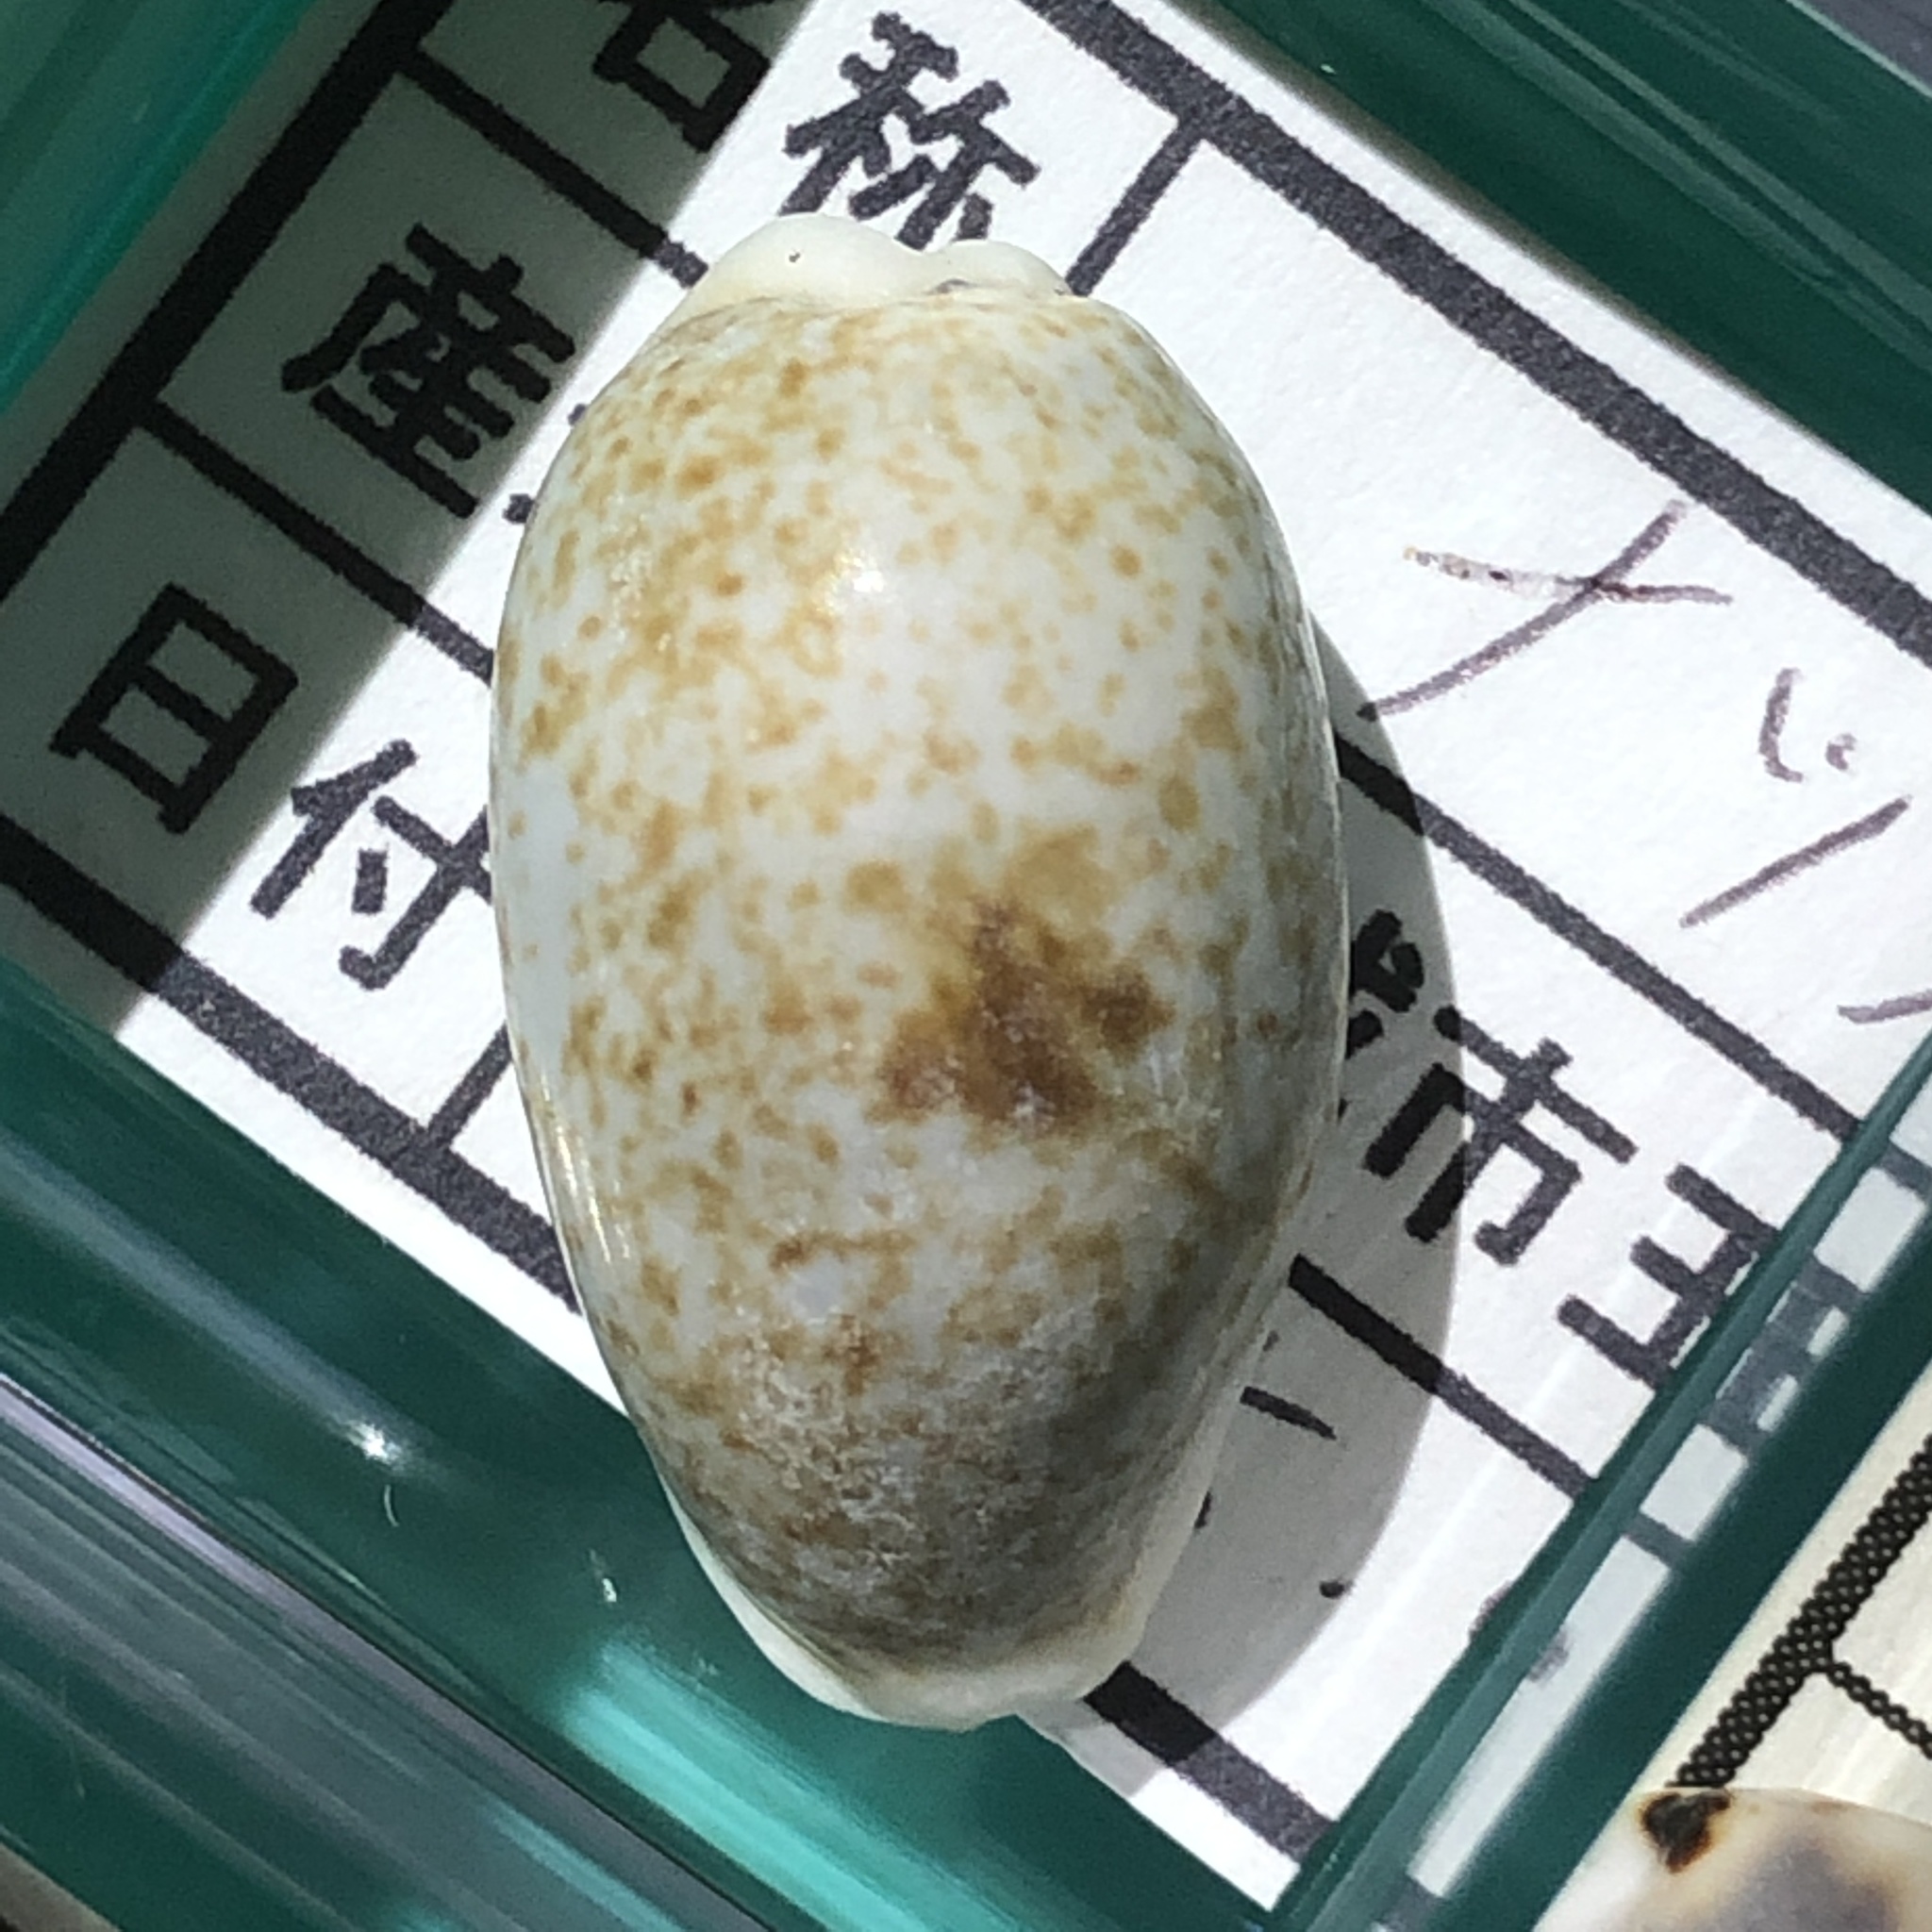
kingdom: Animalia
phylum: Mollusca
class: Gastropoda
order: Littorinimorpha
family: Cypraeidae
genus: Erronea
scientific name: Erronea errones
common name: Mistaken cowrie
